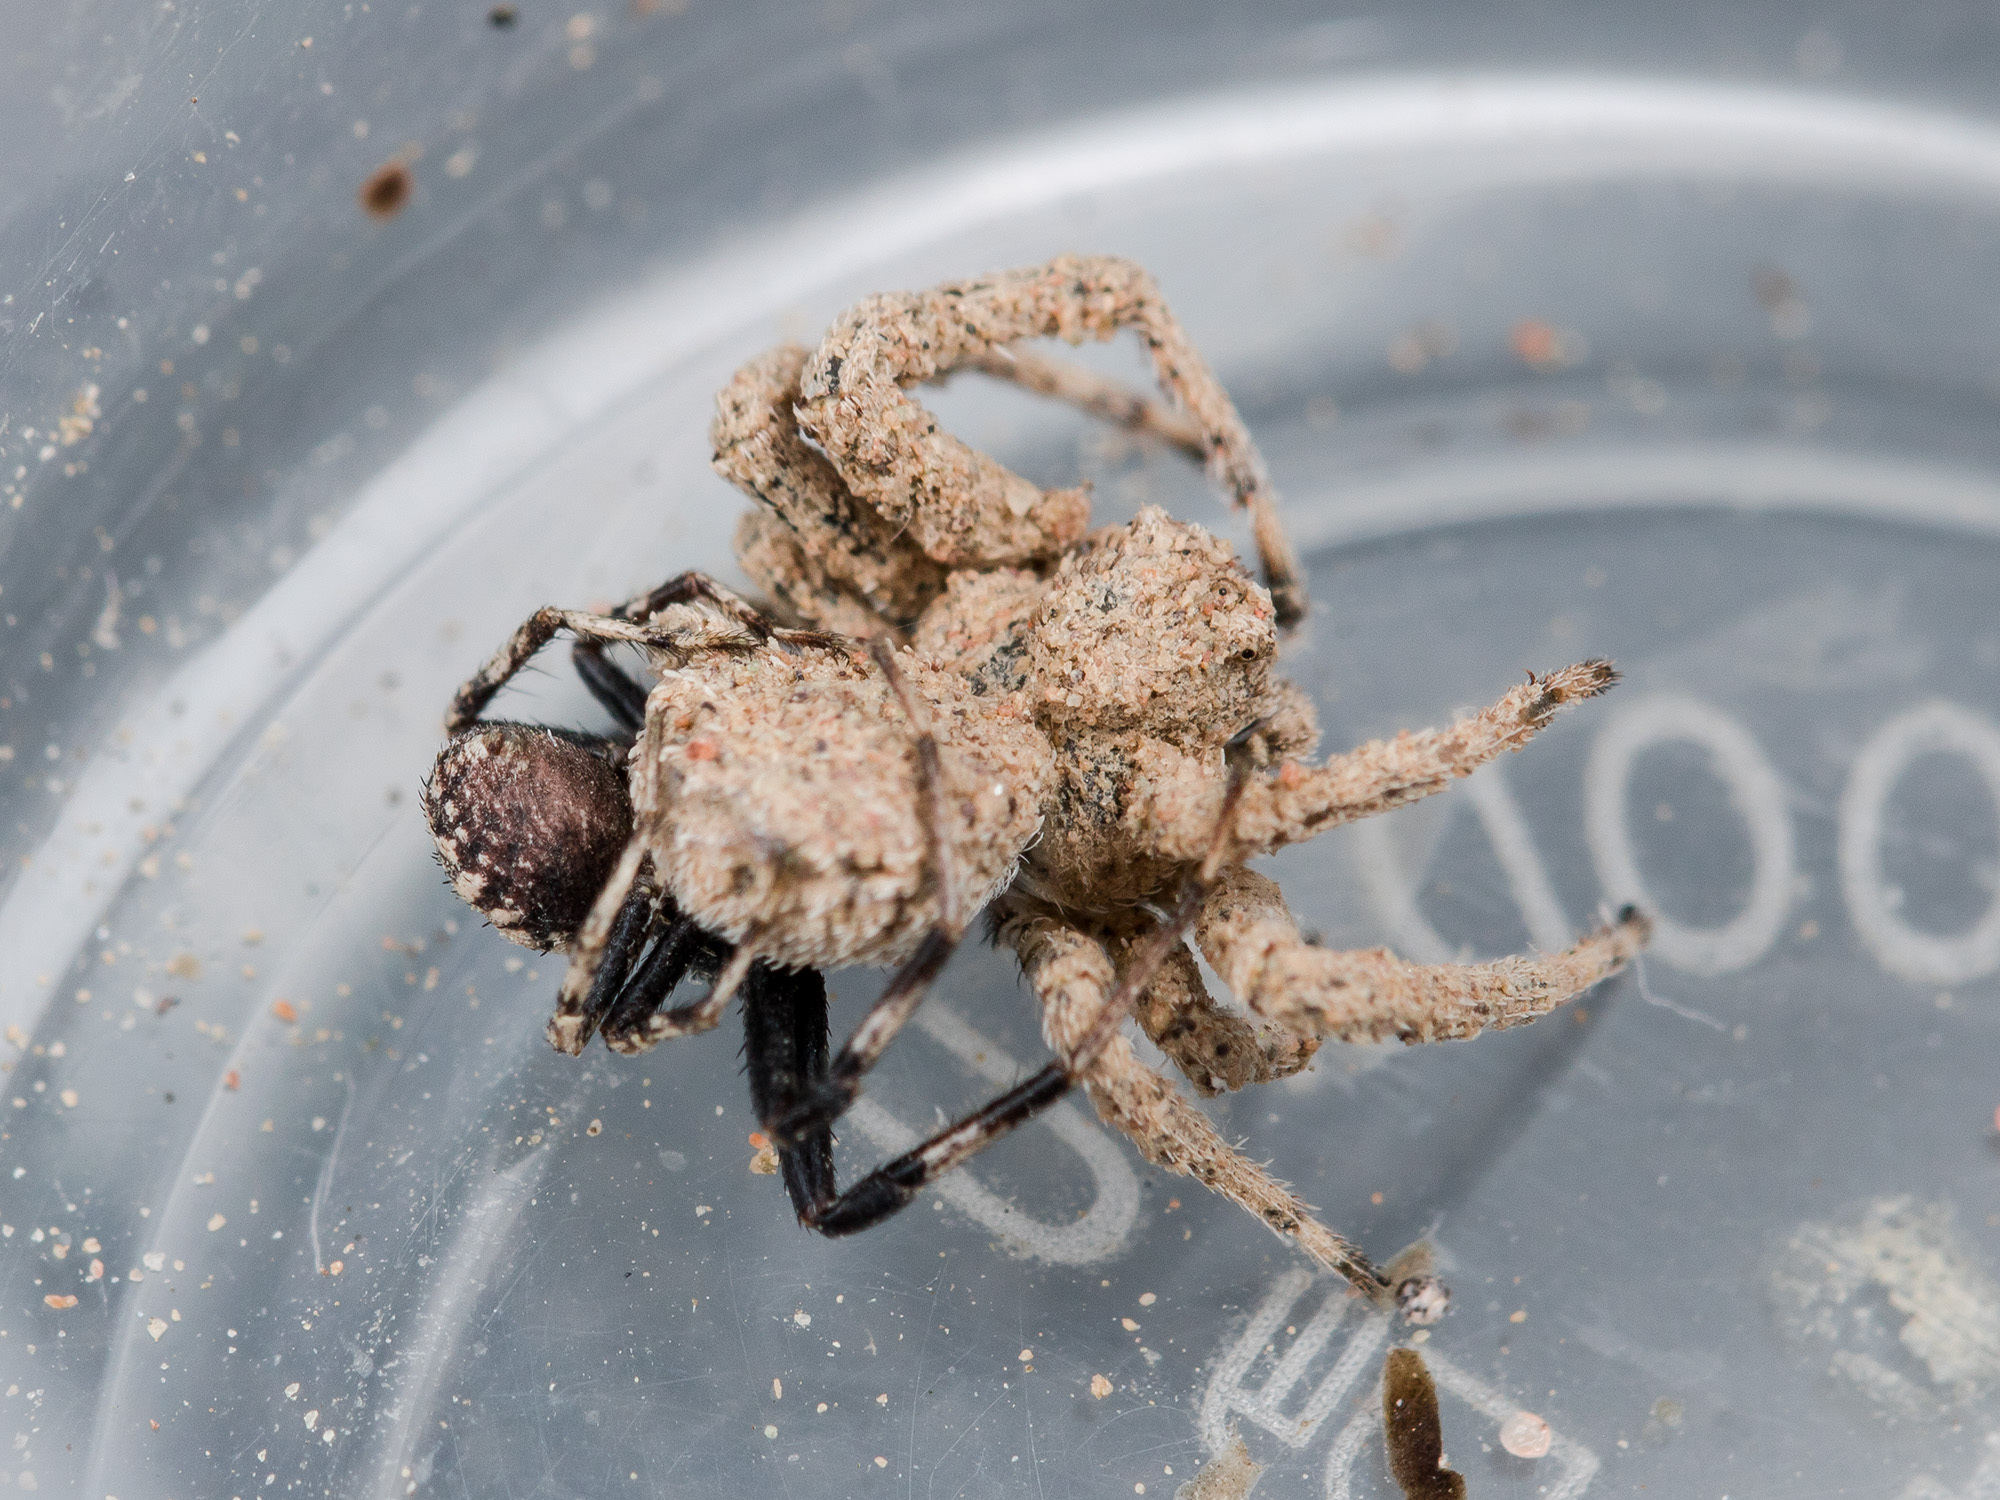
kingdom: Animalia
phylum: Arthropoda
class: Arachnida
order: Araneae
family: Thomisidae
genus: Ozyptila
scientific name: Ozyptila tuberosa
